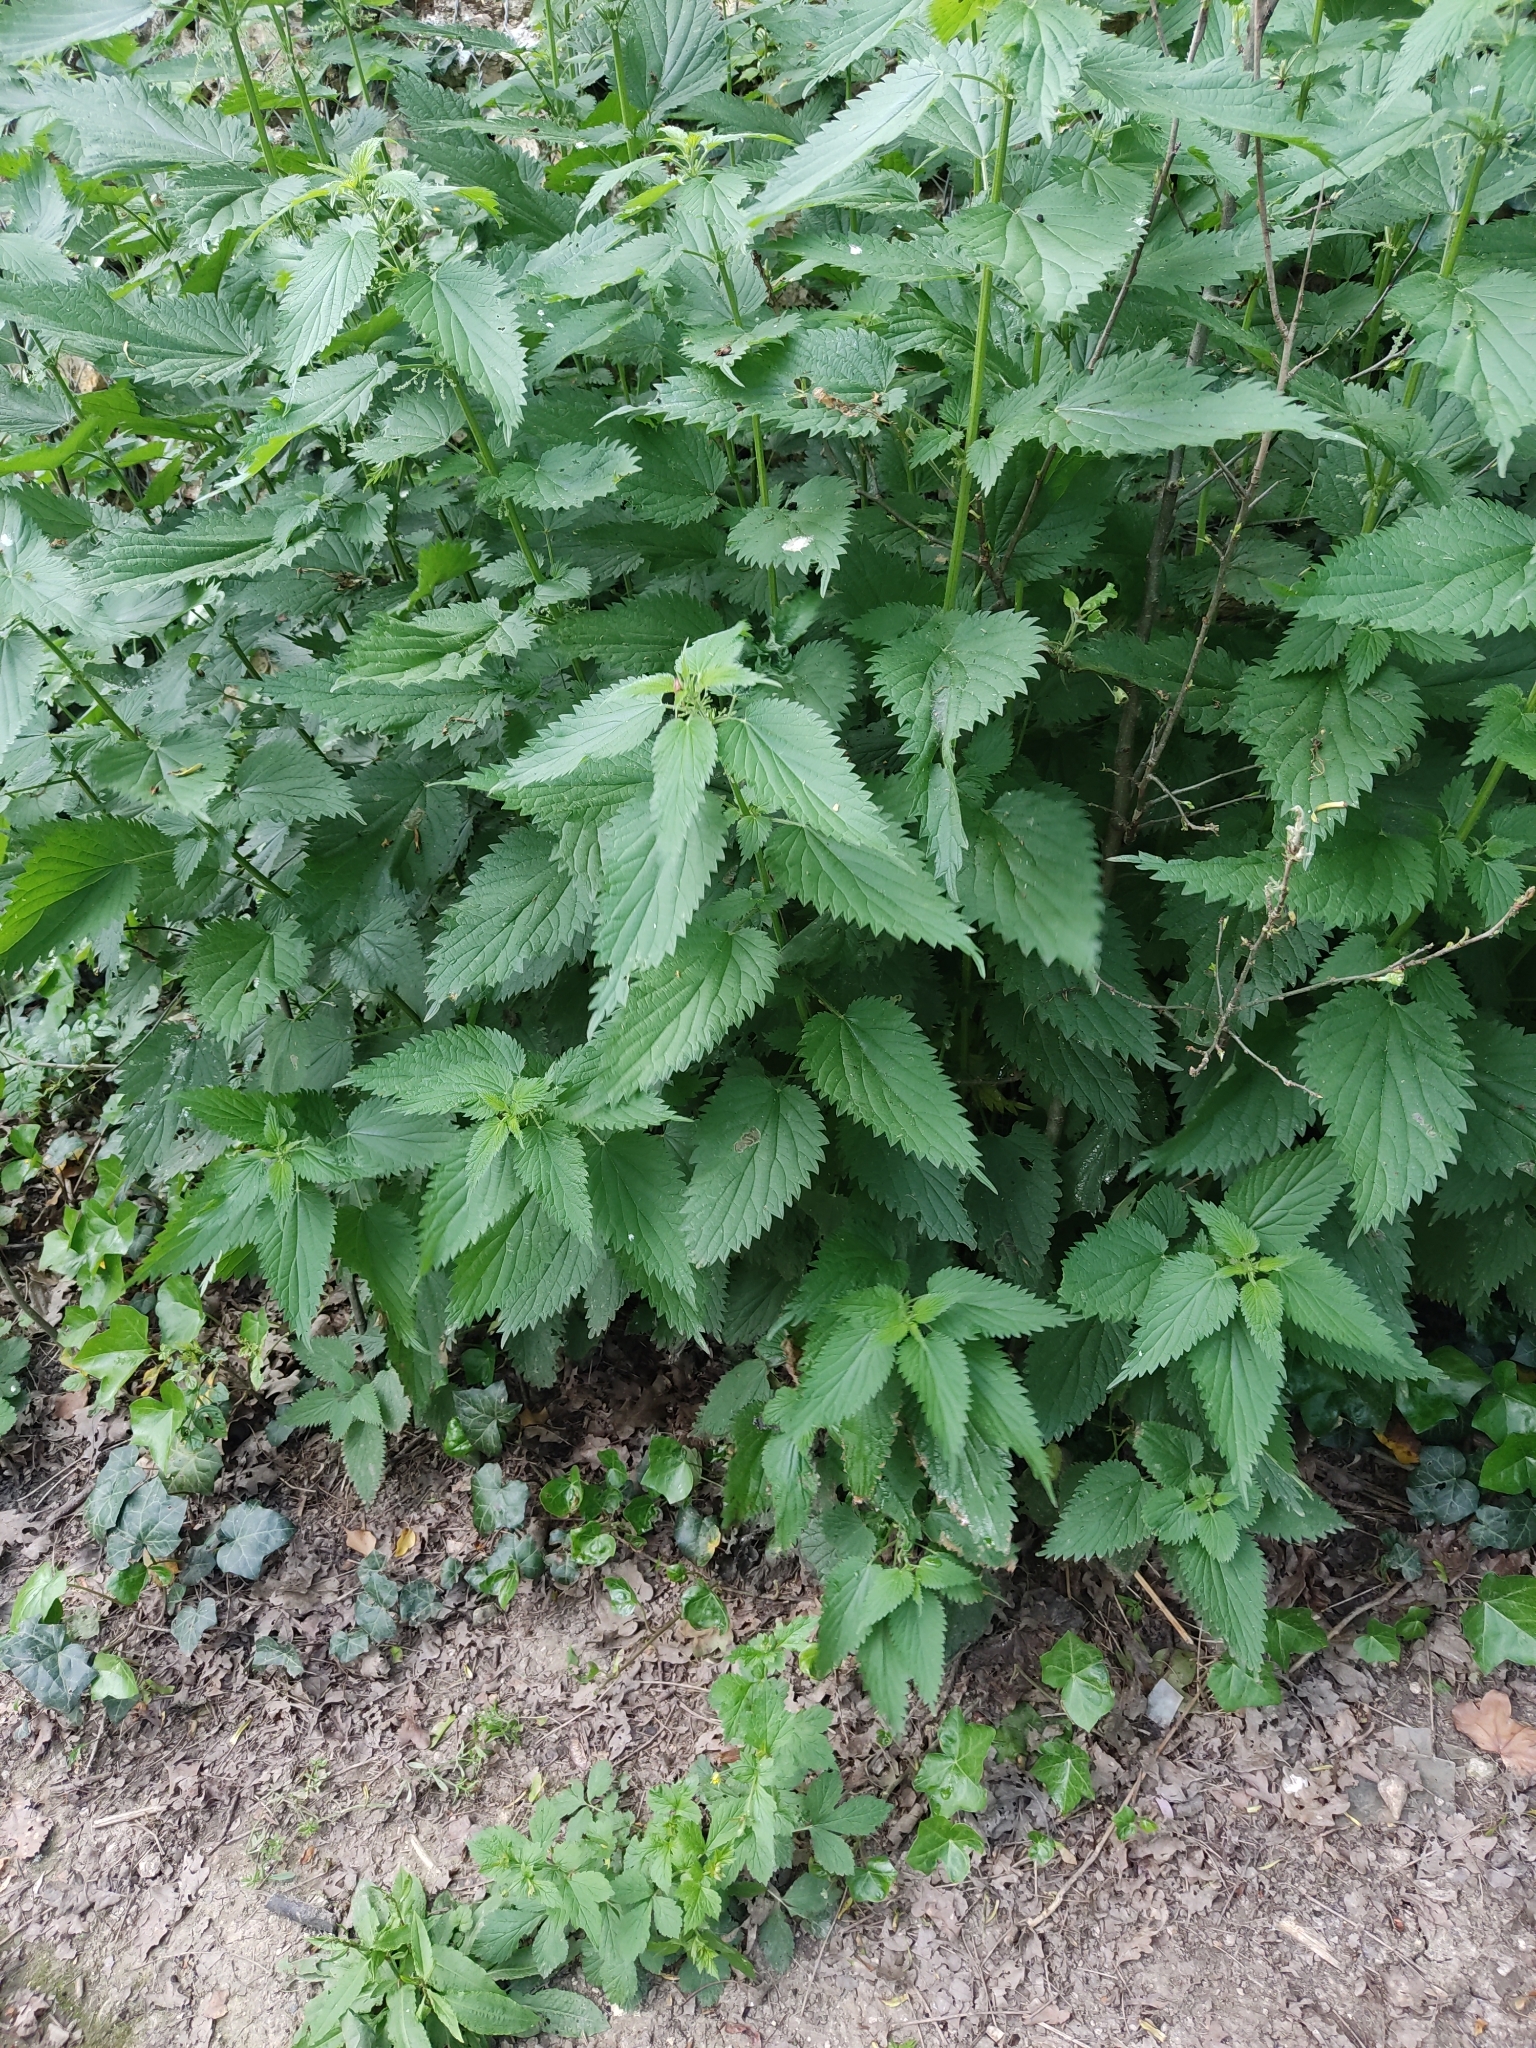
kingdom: Plantae
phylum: Tracheophyta
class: Magnoliopsida
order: Rosales
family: Urticaceae
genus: Urtica
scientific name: Urtica dioica
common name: Common nettle
